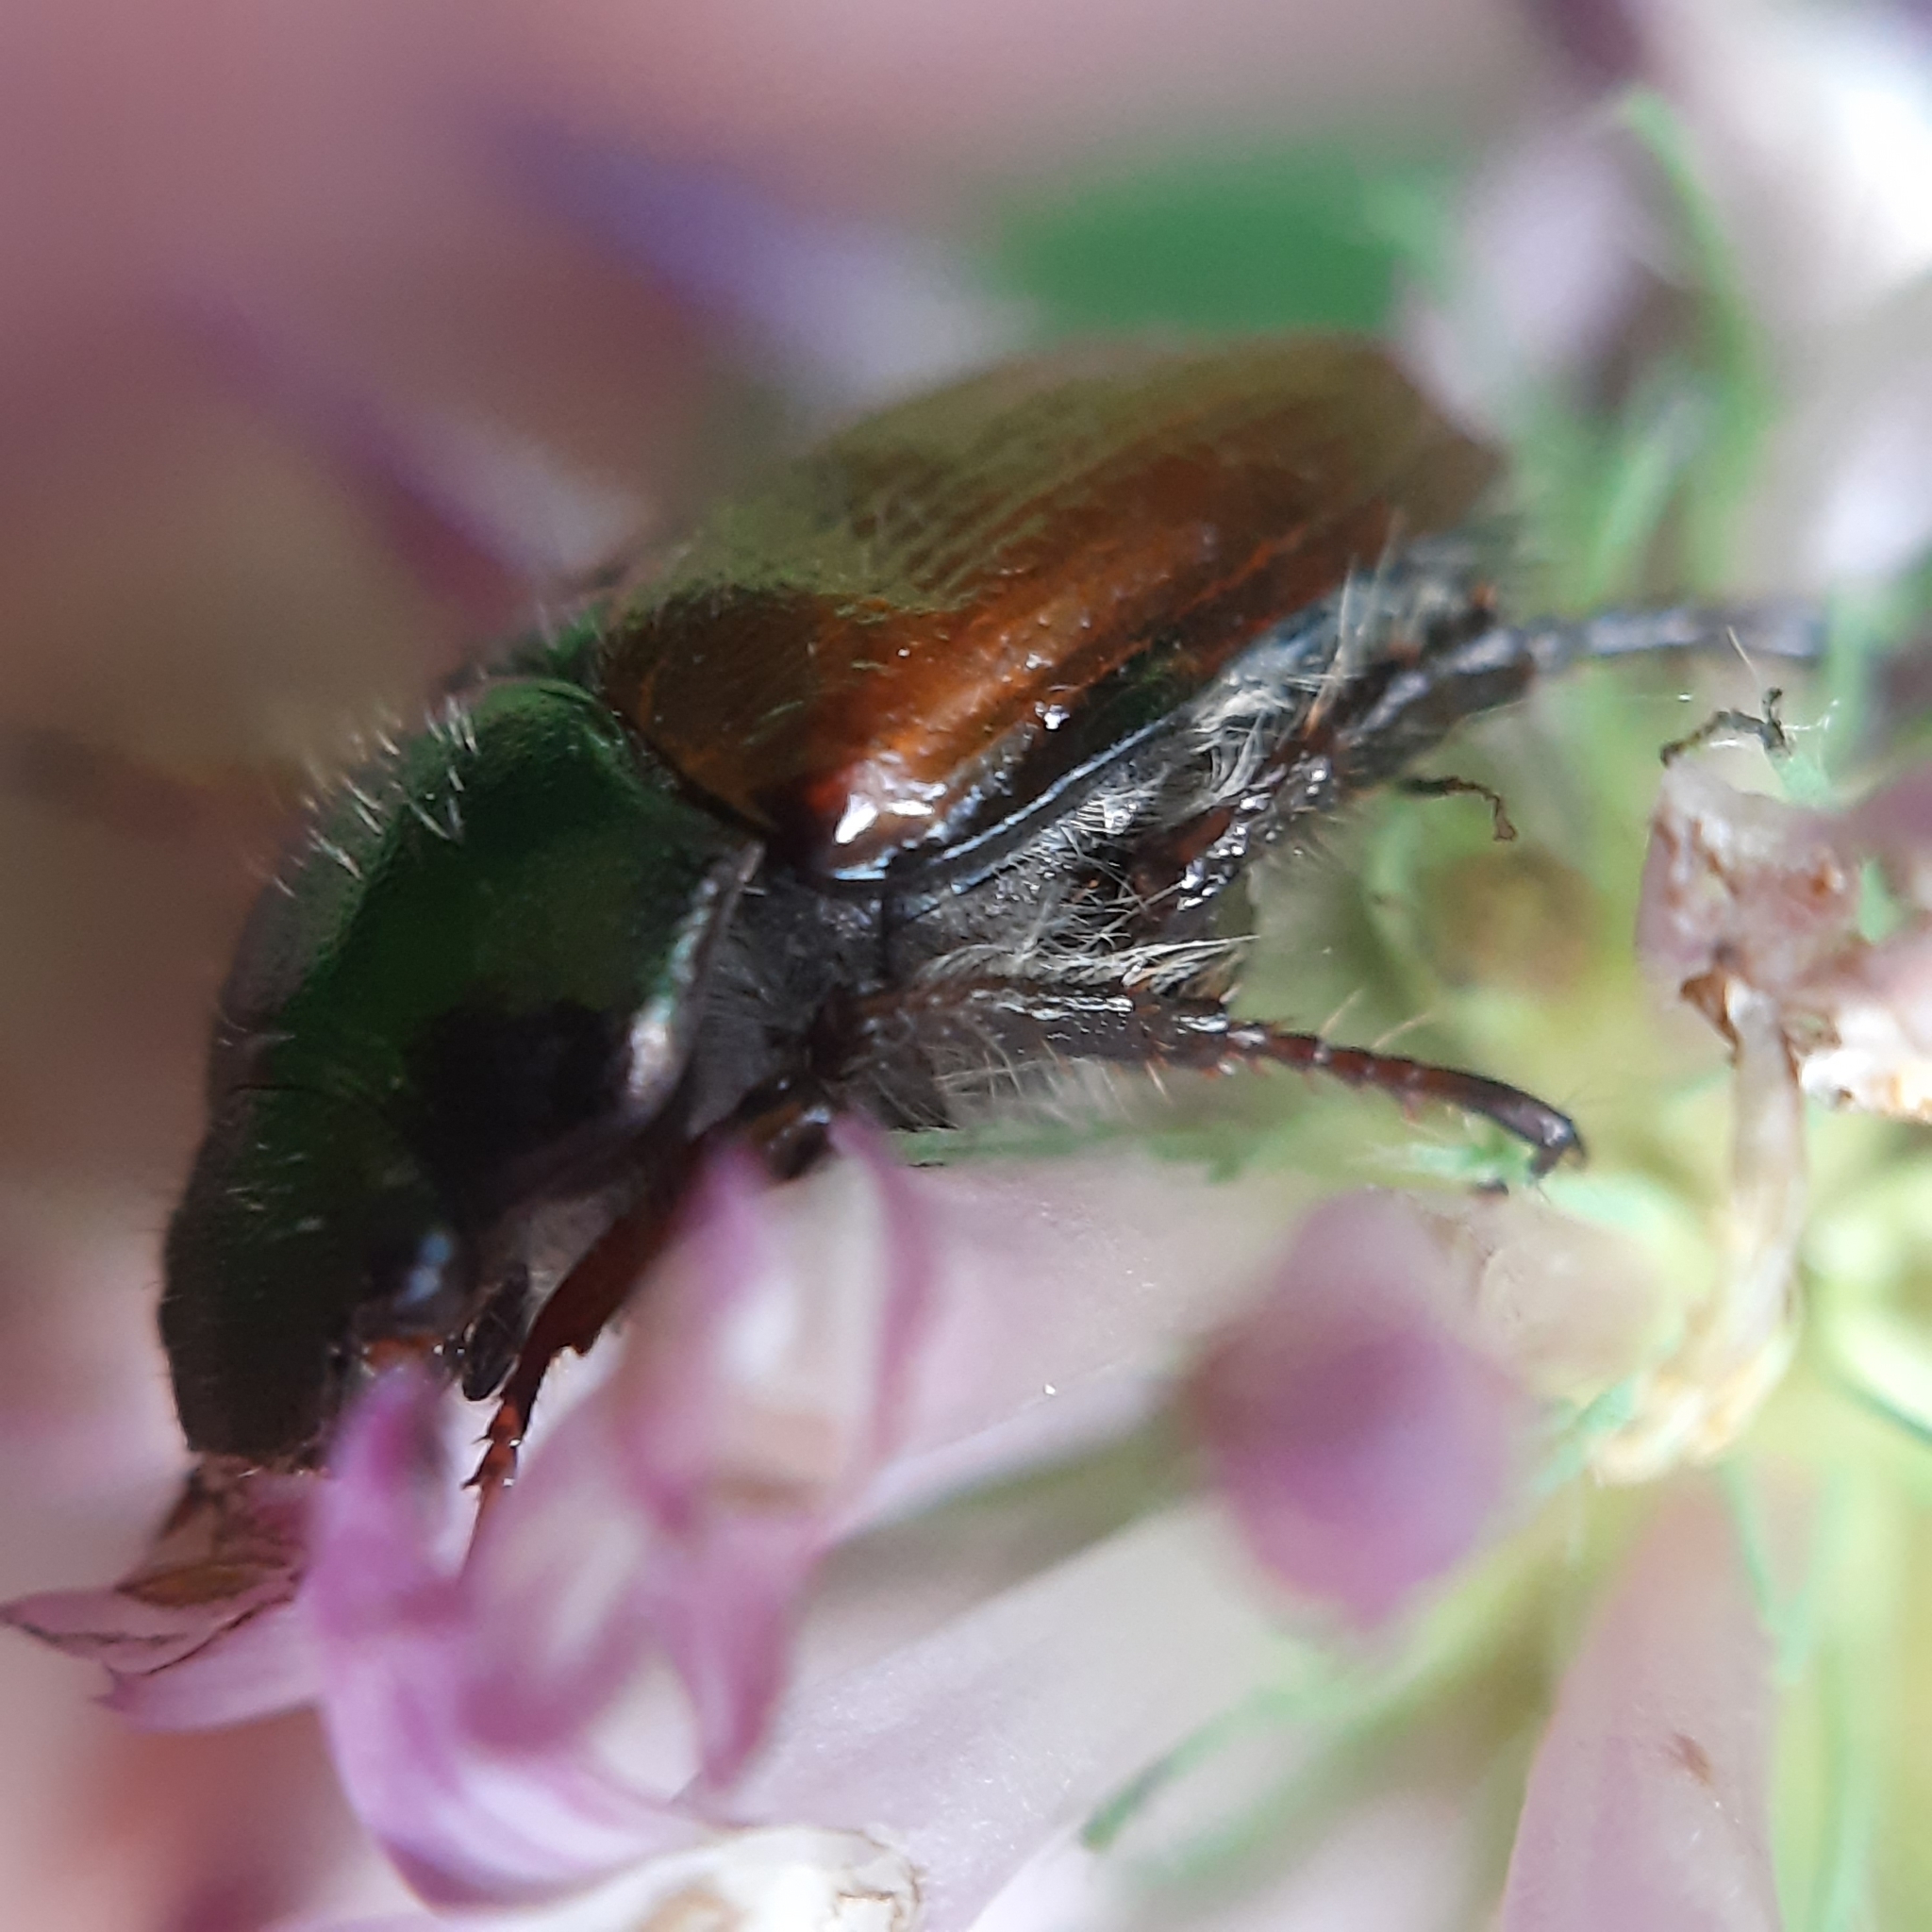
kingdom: Animalia
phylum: Arthropoda
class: Insecta
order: Coleoptera
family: Scarabaeidae
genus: Phyllopertha
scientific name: Phyllopertha horticola
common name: Garden chafer
